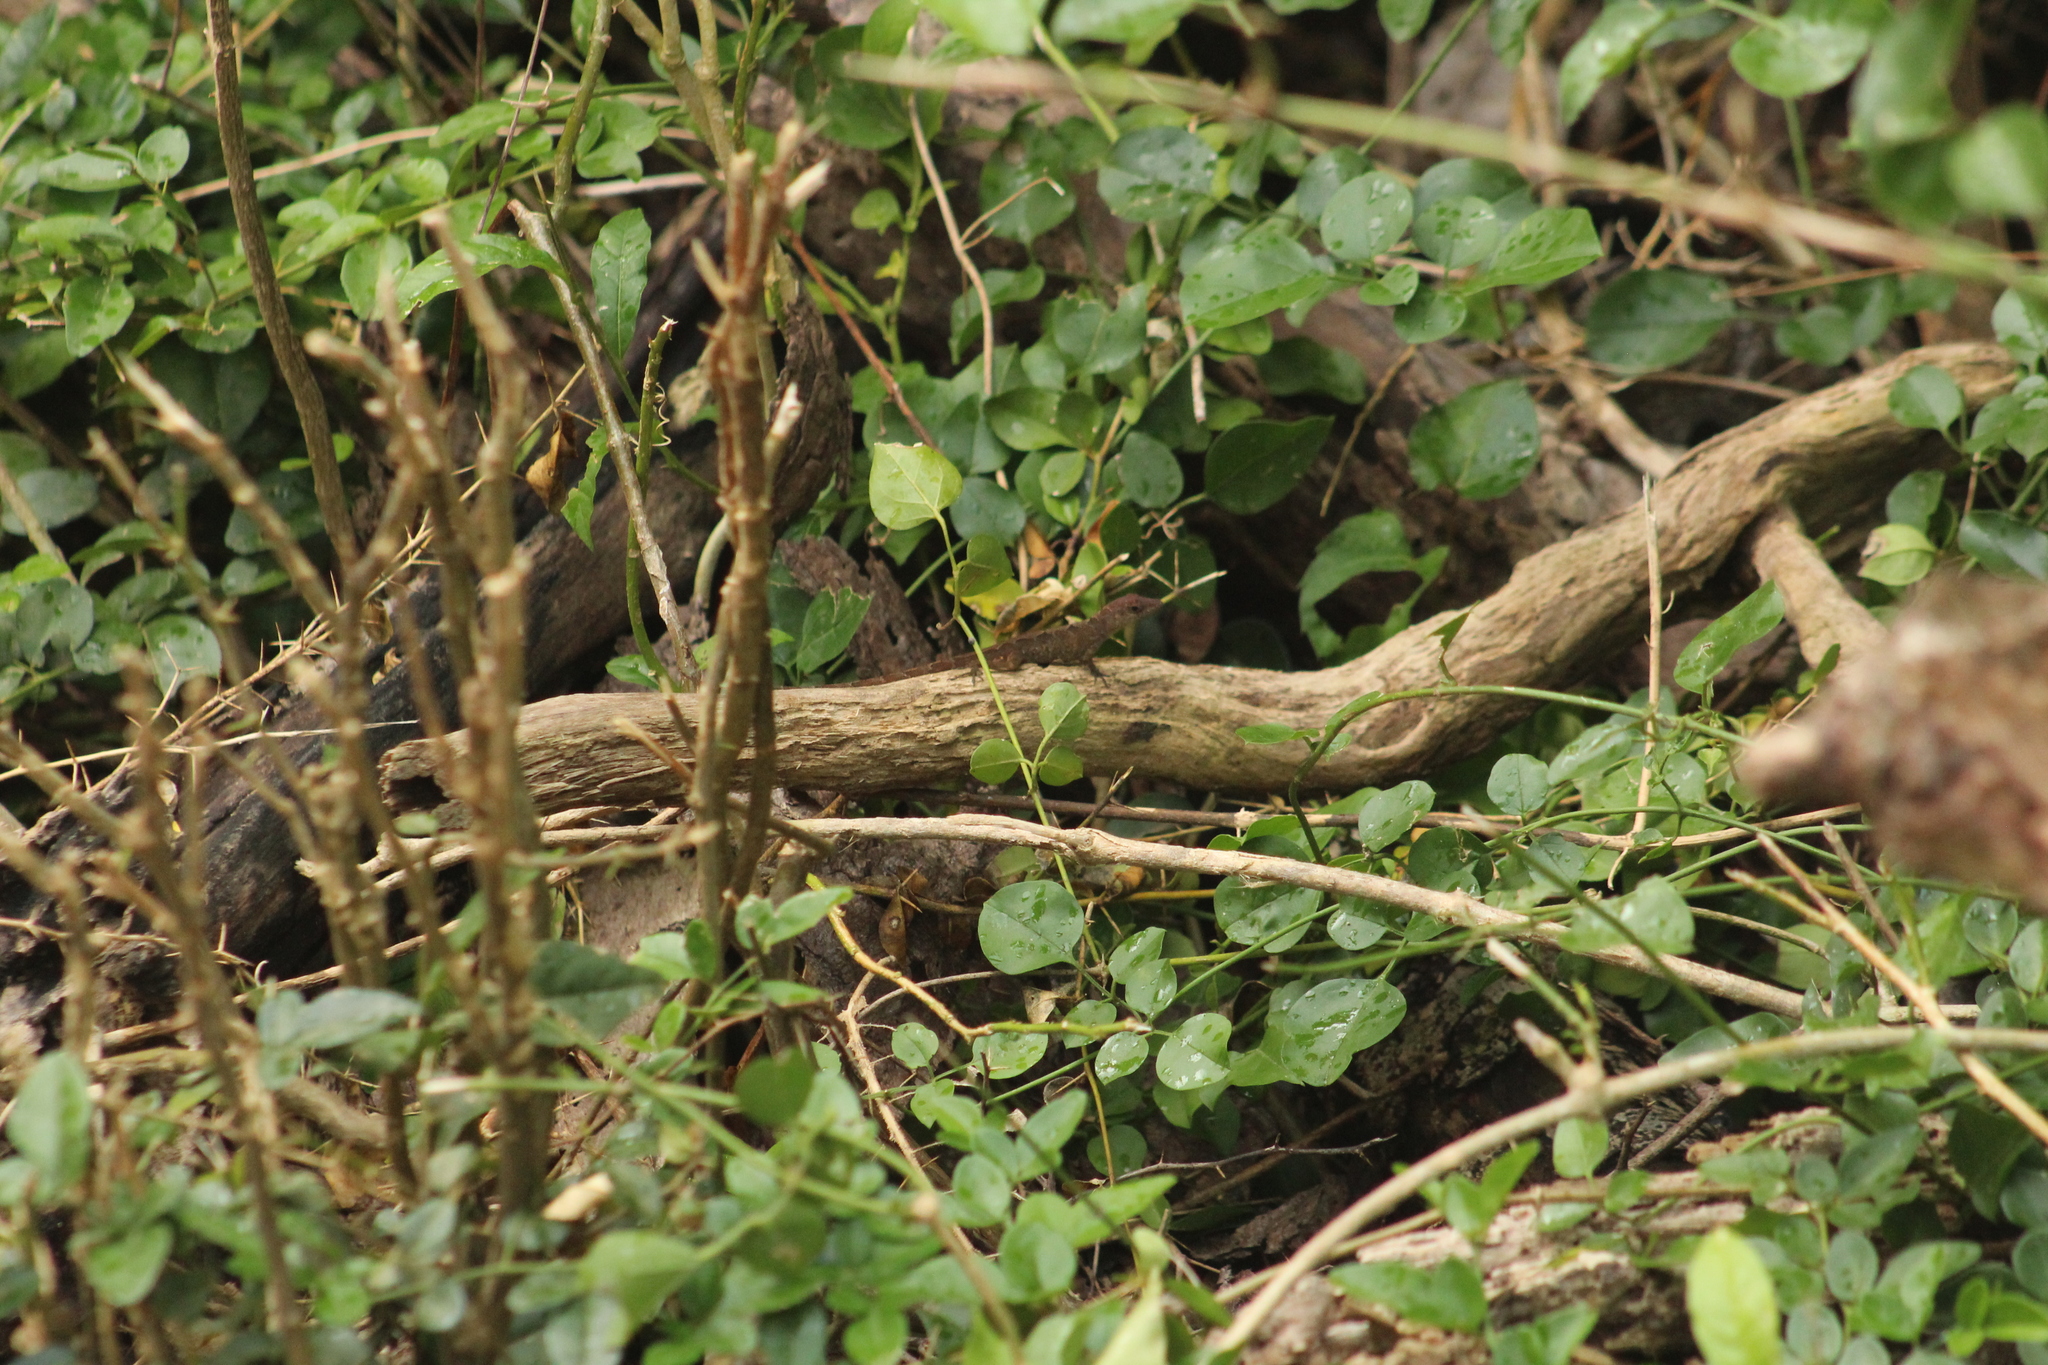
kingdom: Animalia
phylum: Chordata
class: Squamata
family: Dactyloidae
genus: Anolis
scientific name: Anolis pogus
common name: Anguilla bank bush anole
